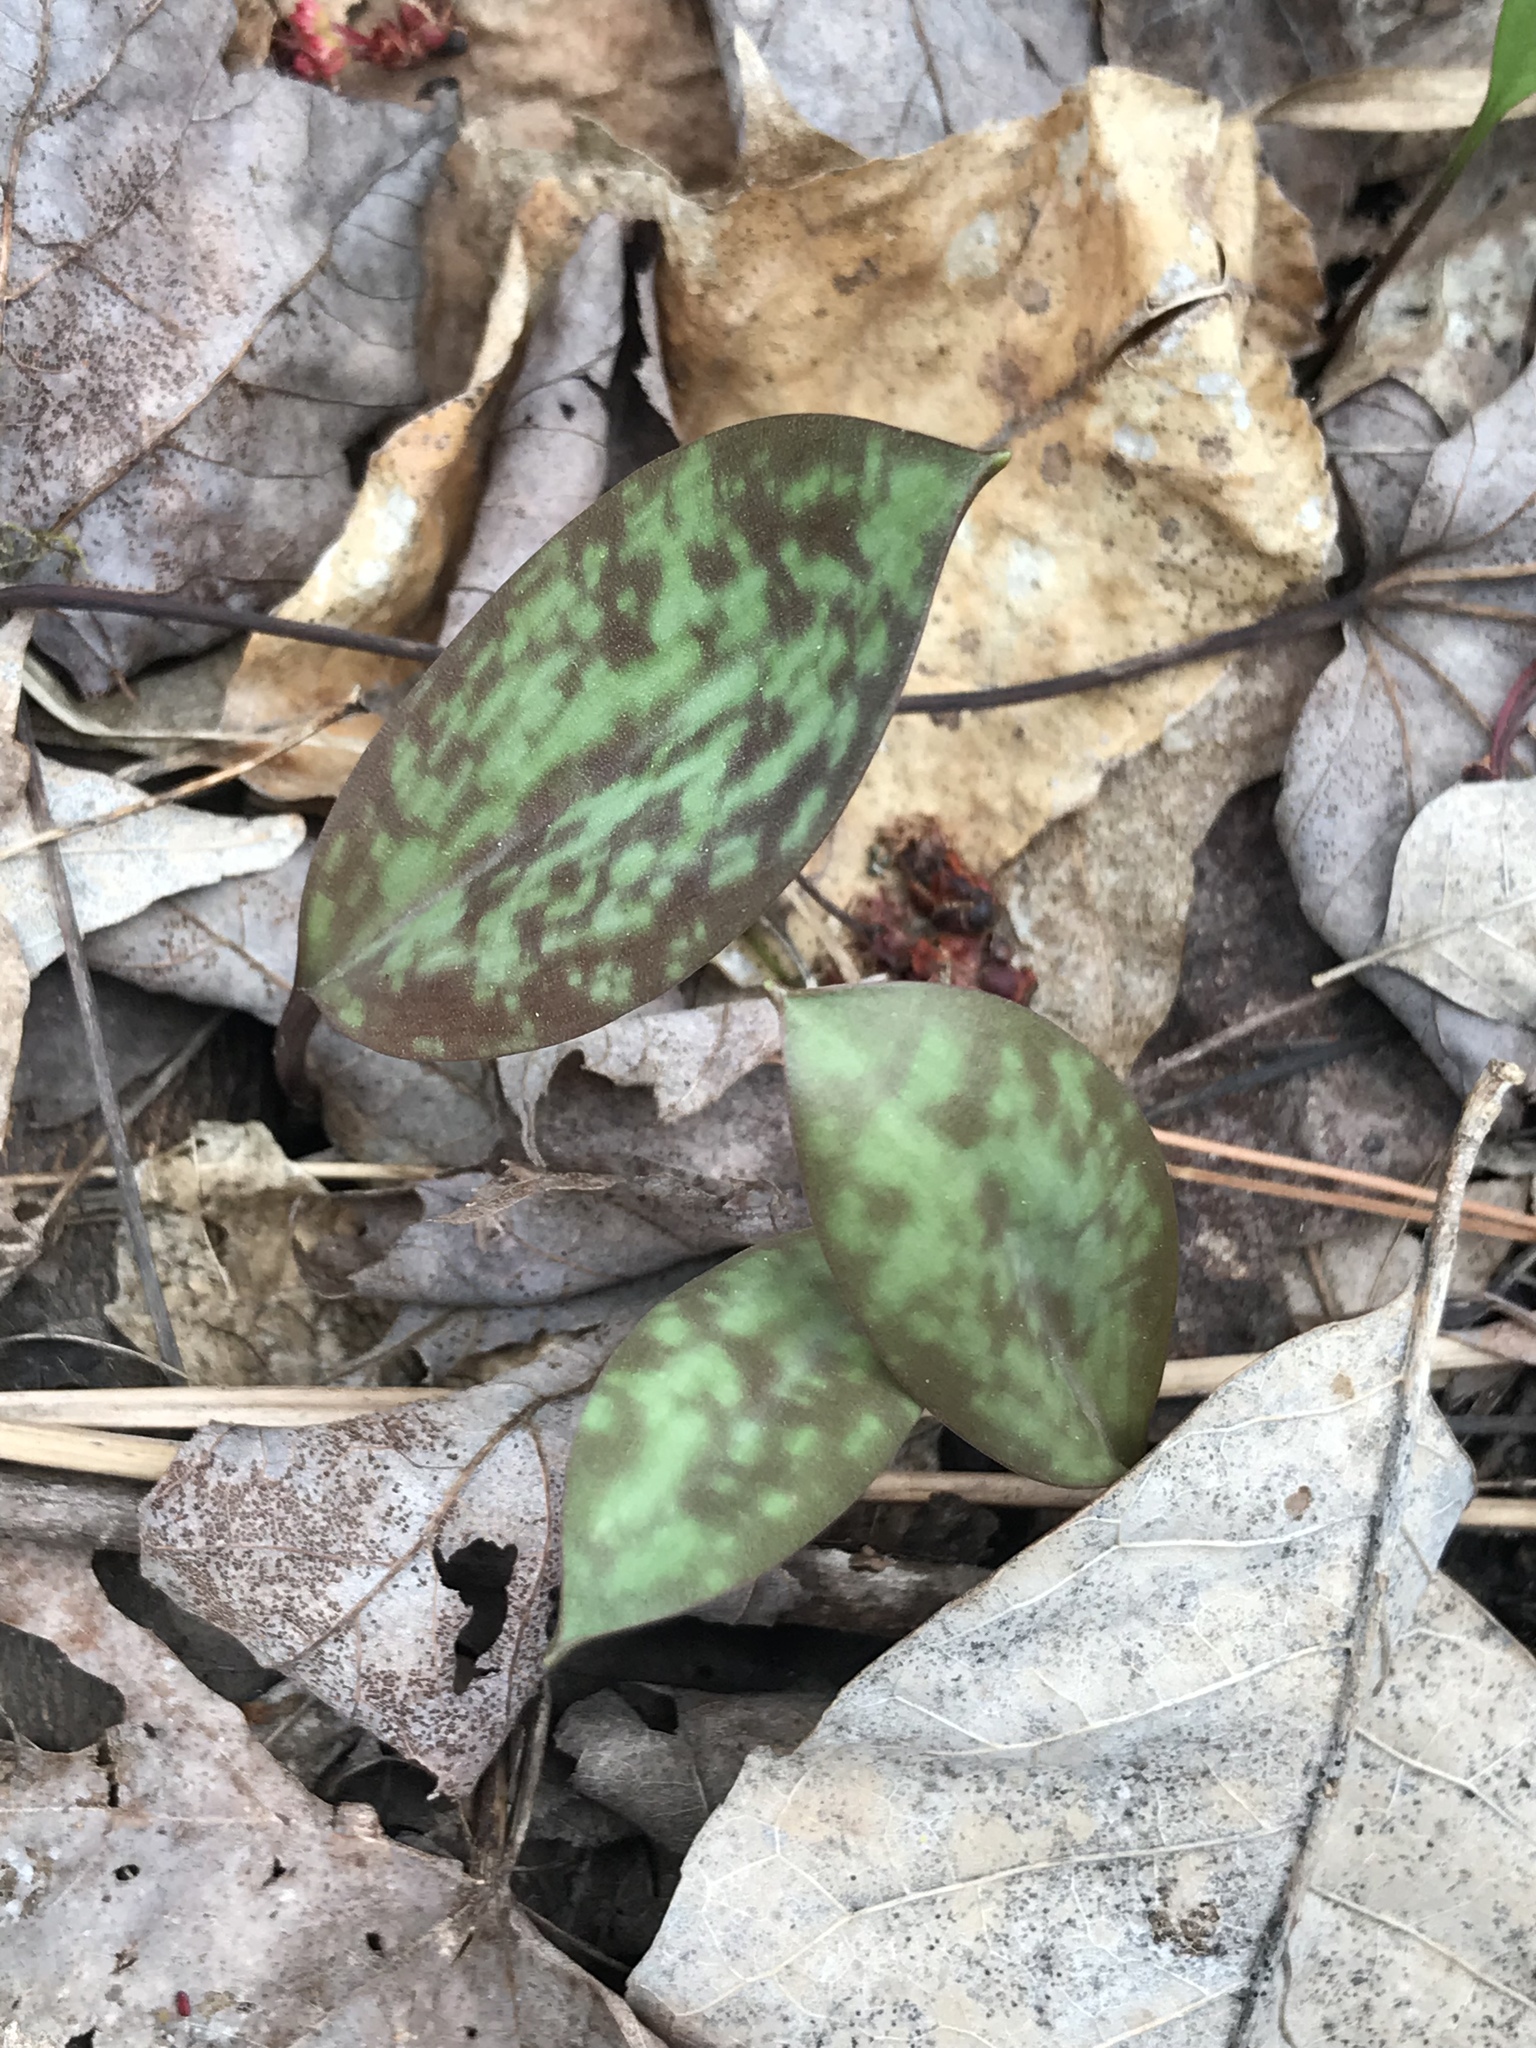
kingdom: Plantae
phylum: Tracheophyta
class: Liliopsida
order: Liliales
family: Liliaceae
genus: Erythronium
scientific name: Erythronium americanum
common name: Yellow adder's-tongue
